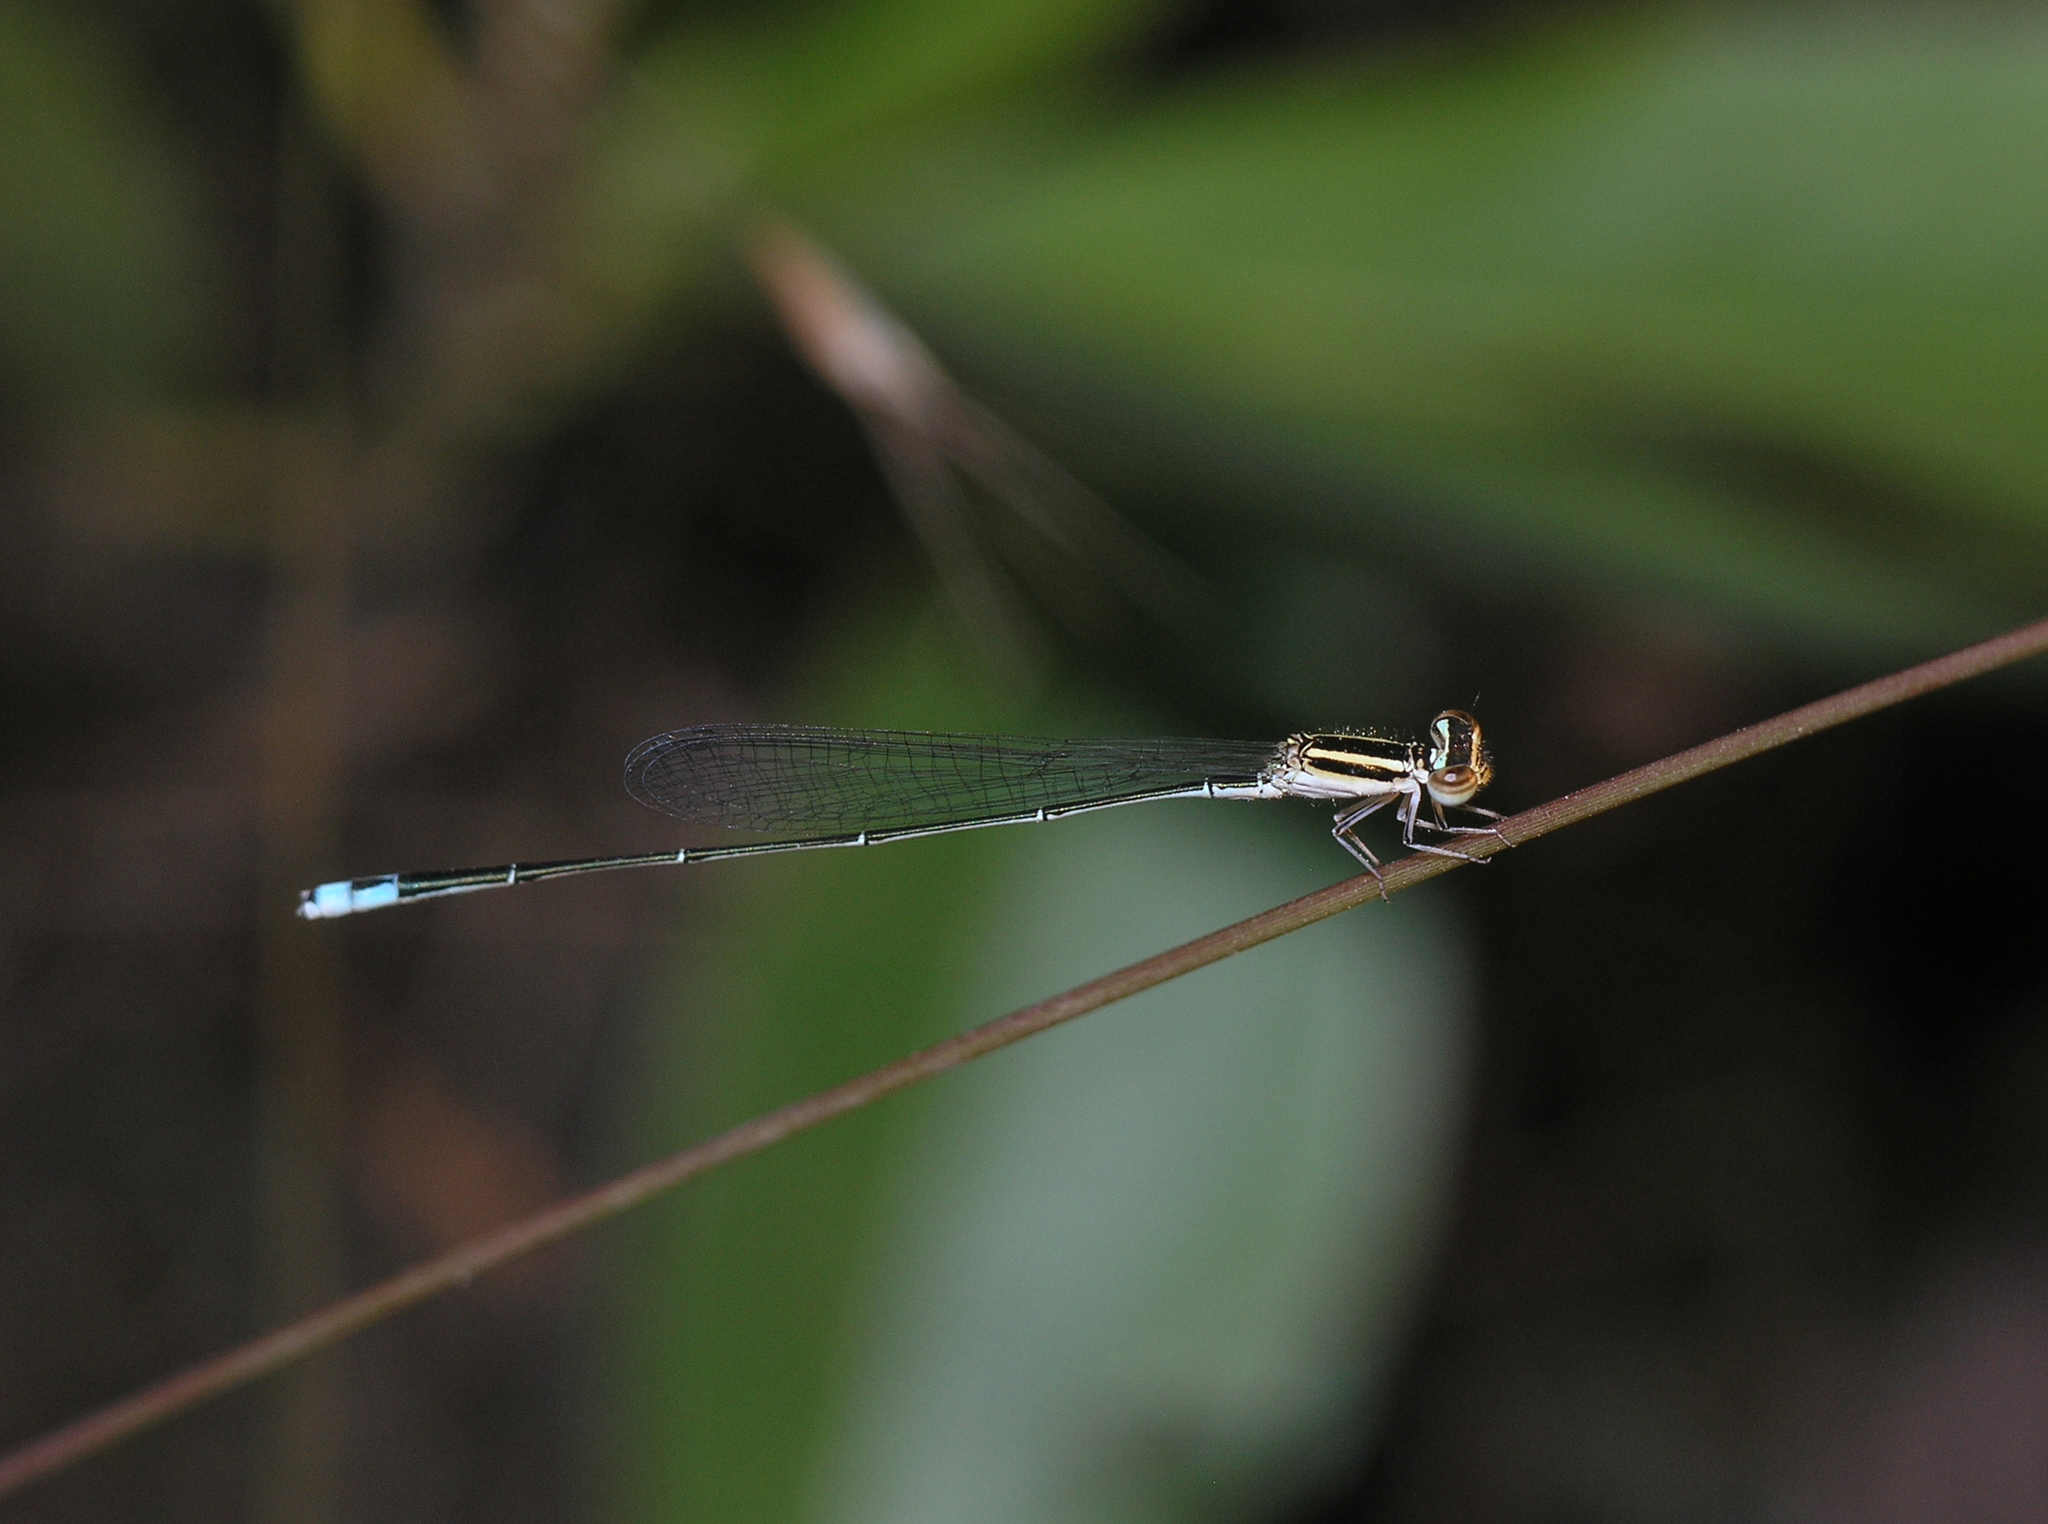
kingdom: Animalia
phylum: Arthropoda
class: Insecta
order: Odonata
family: Coenagrionidae
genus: Aciagrion
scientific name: Aciagrion borneense
